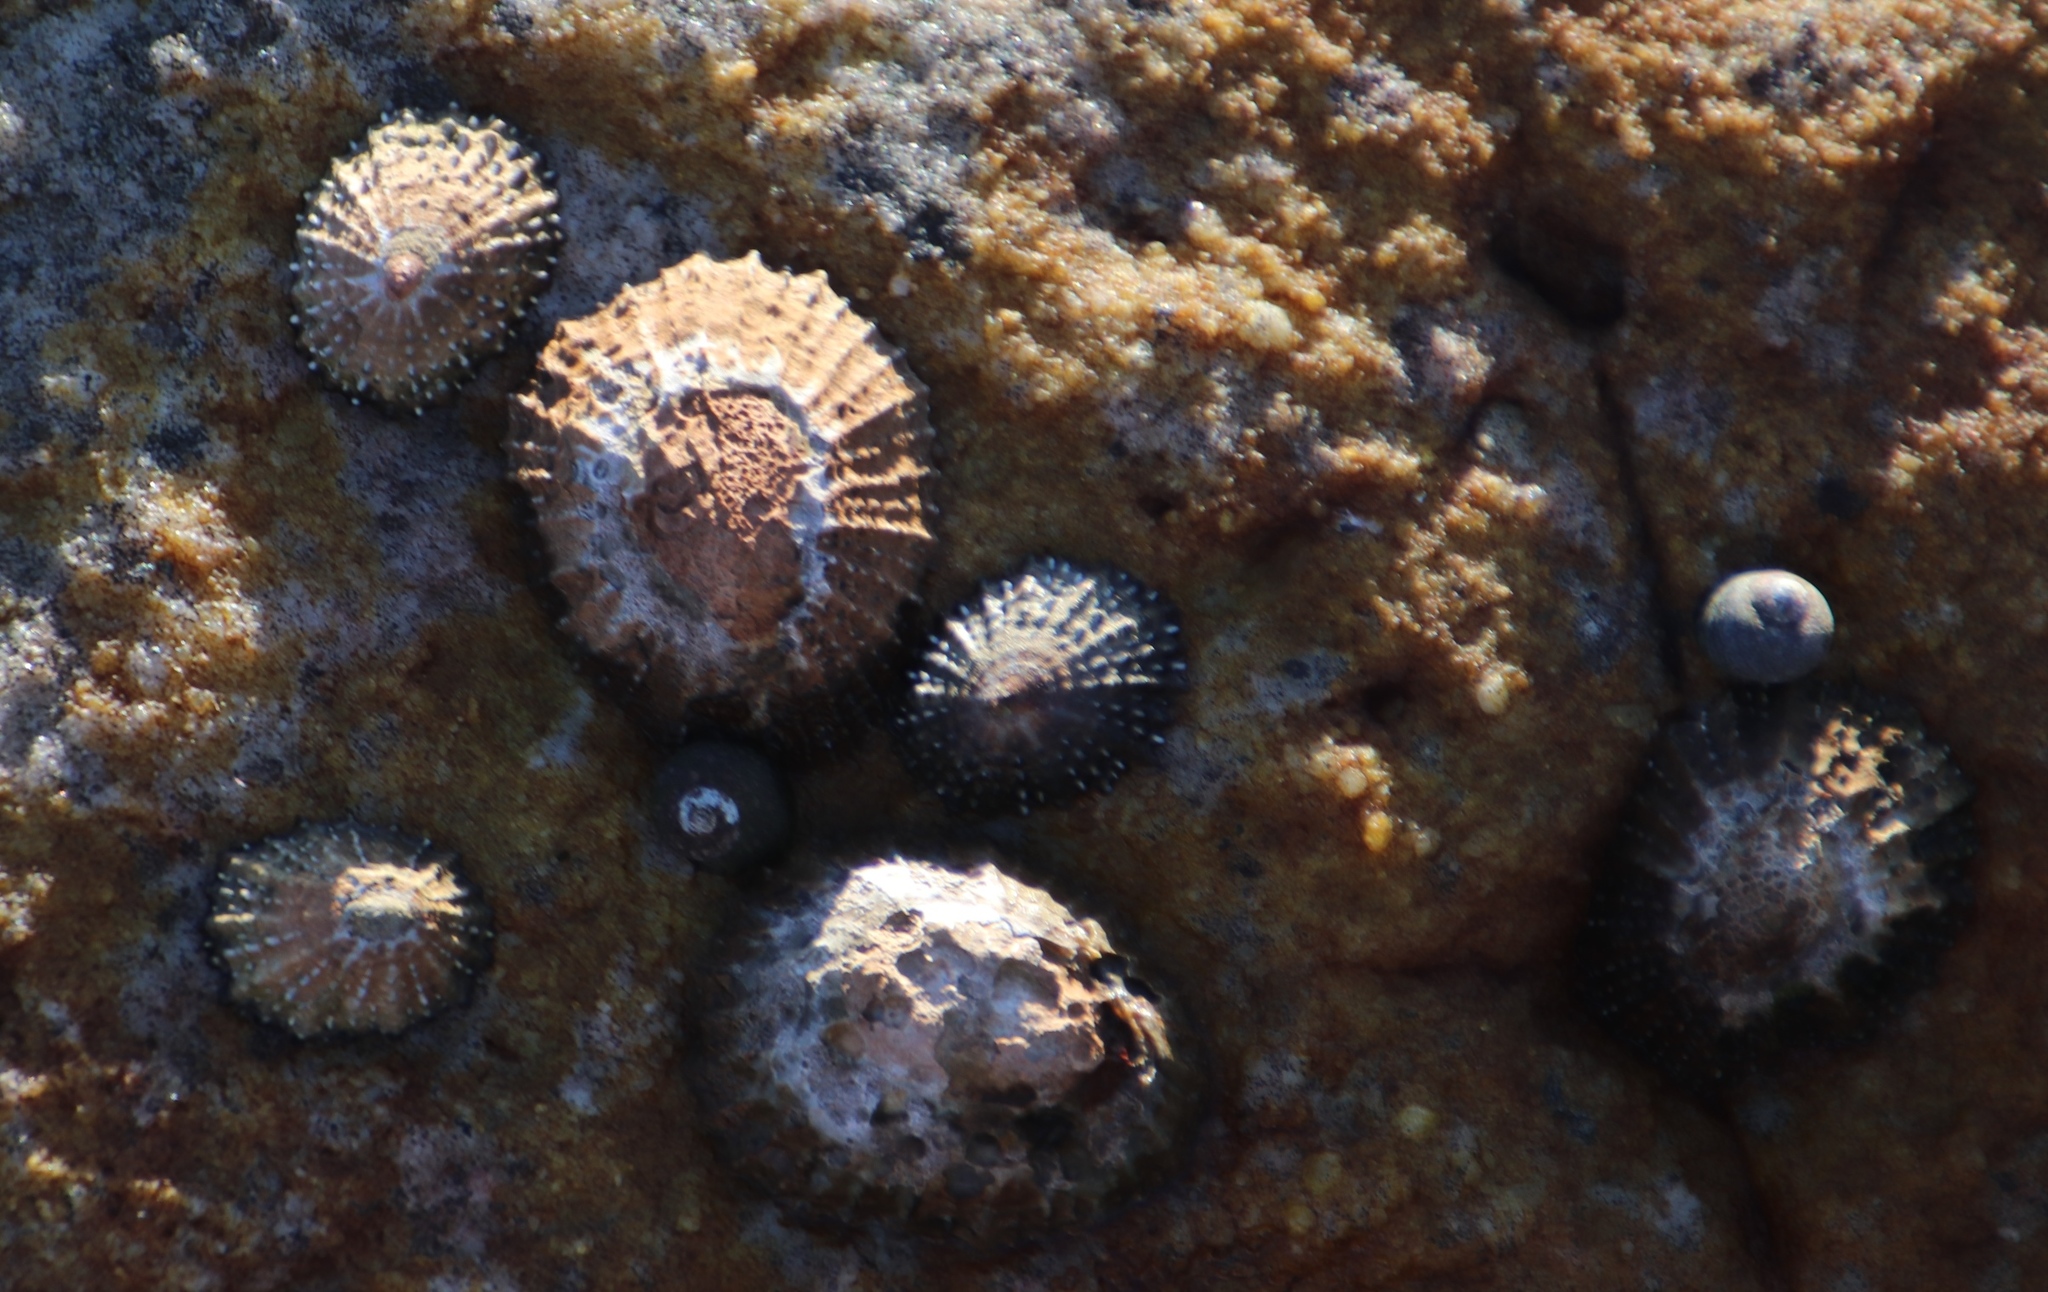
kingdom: Animalia
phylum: Mollusca
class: Gastropoda
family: Patellidae
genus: Scutellastra
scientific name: Scutellastra granularis
